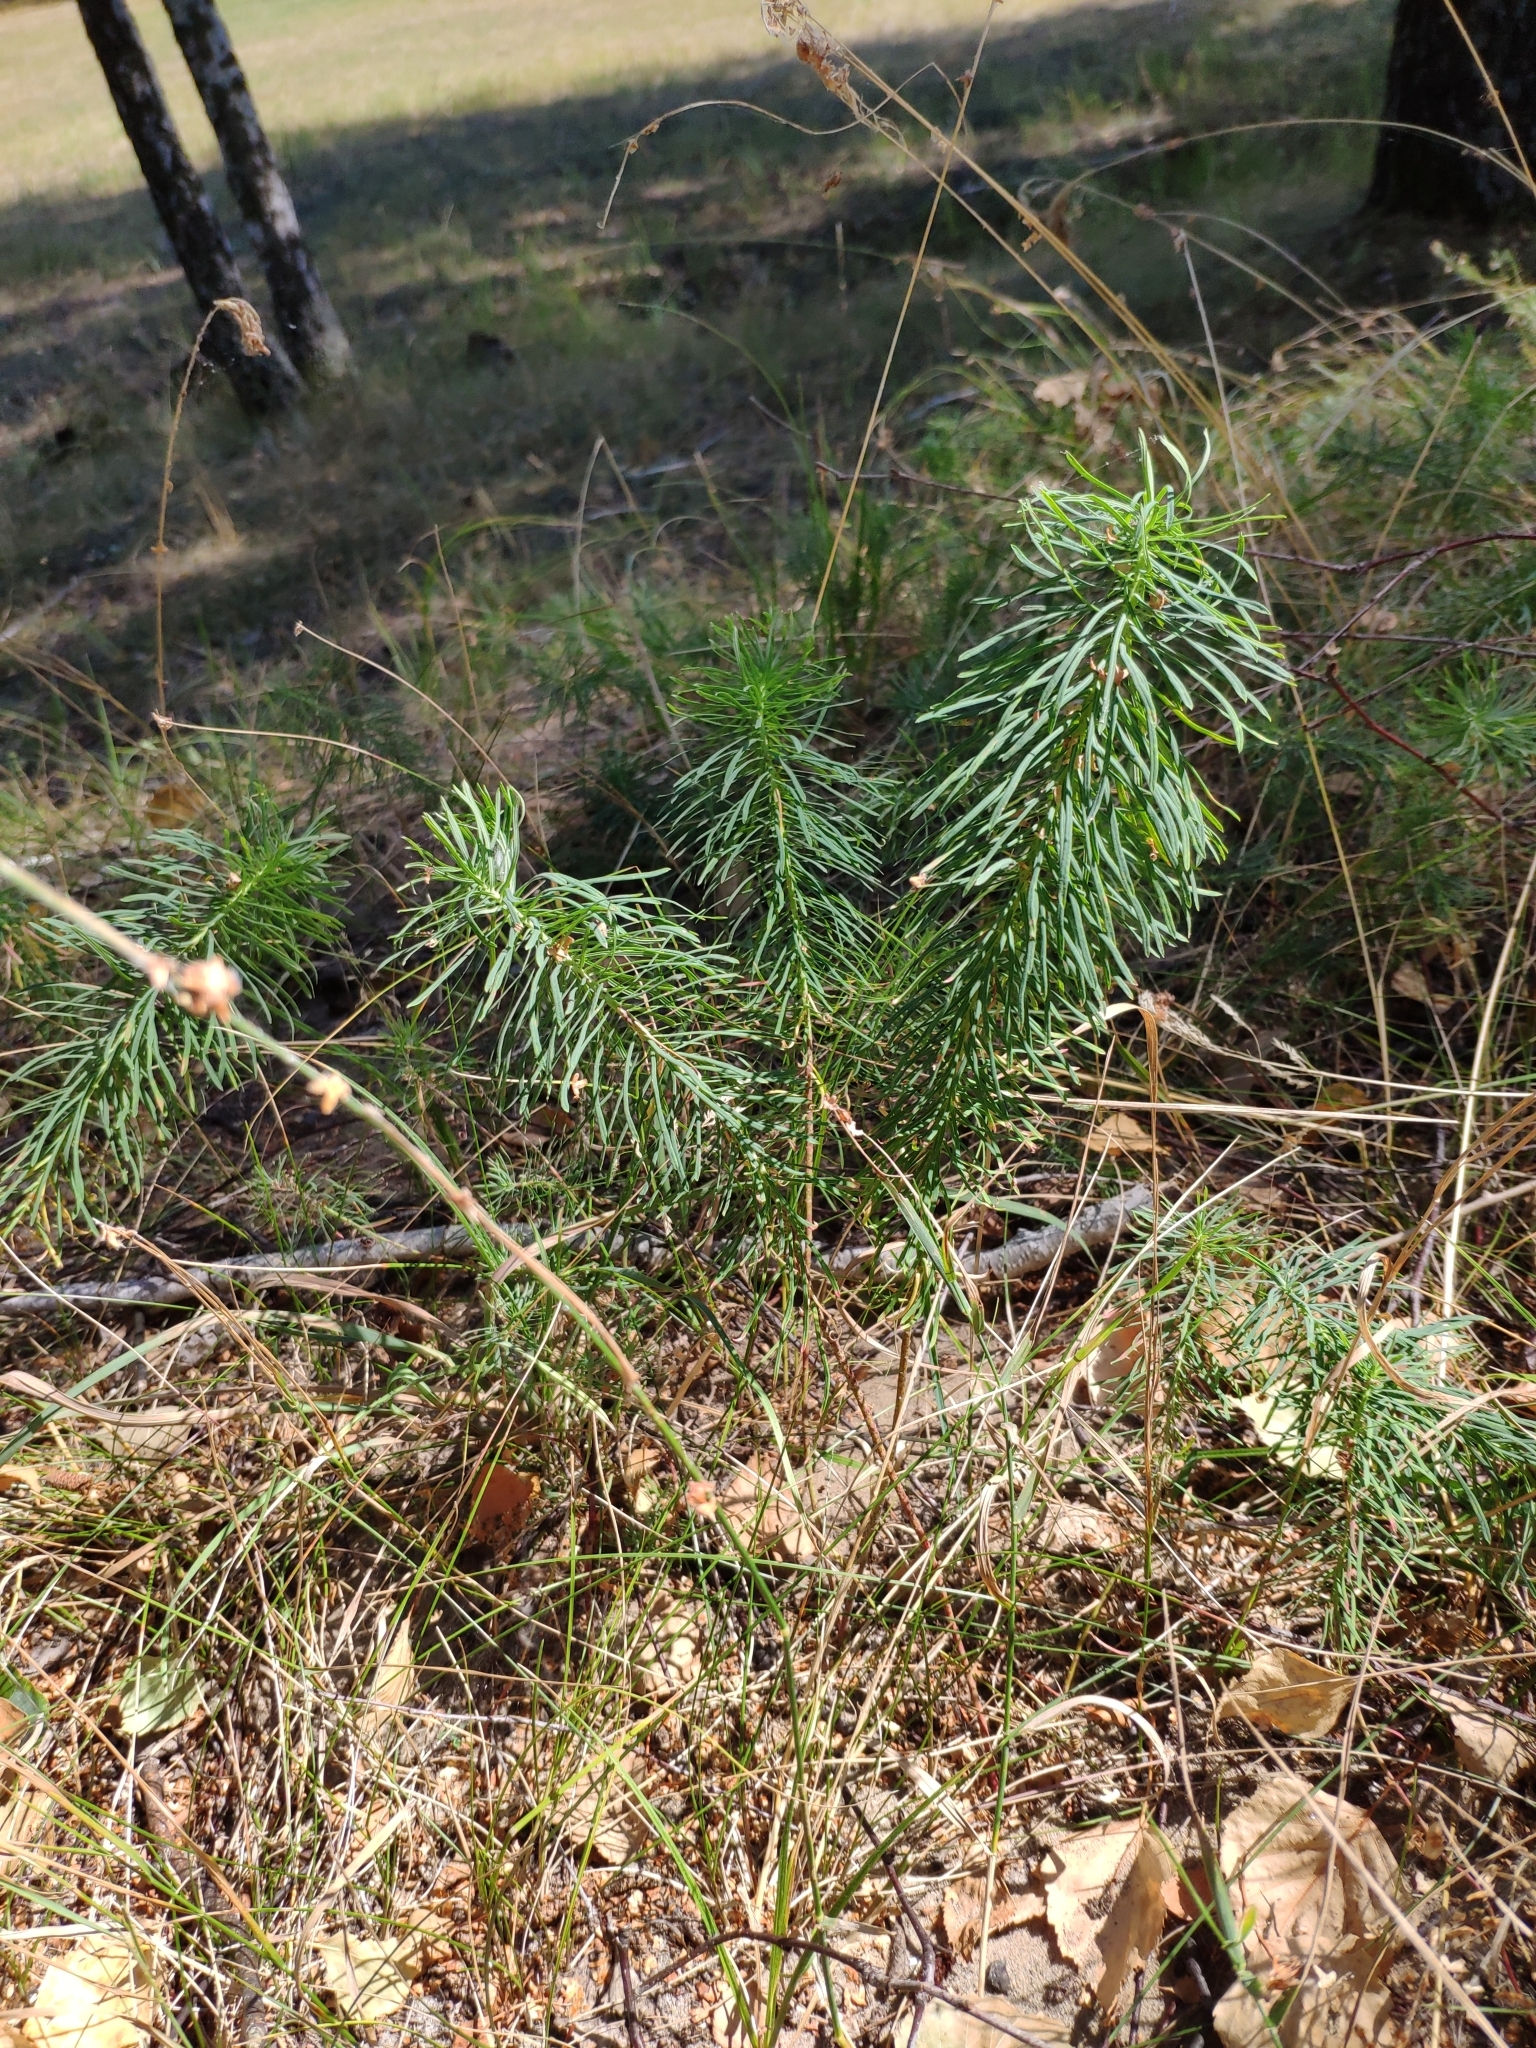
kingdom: Plantae
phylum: Tracheophyta
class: Magnoliopsida
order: Malpighiales
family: Euphorbiaceae
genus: Euphorbia
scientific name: Euphorbia cyparissias
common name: Cypress spurge
